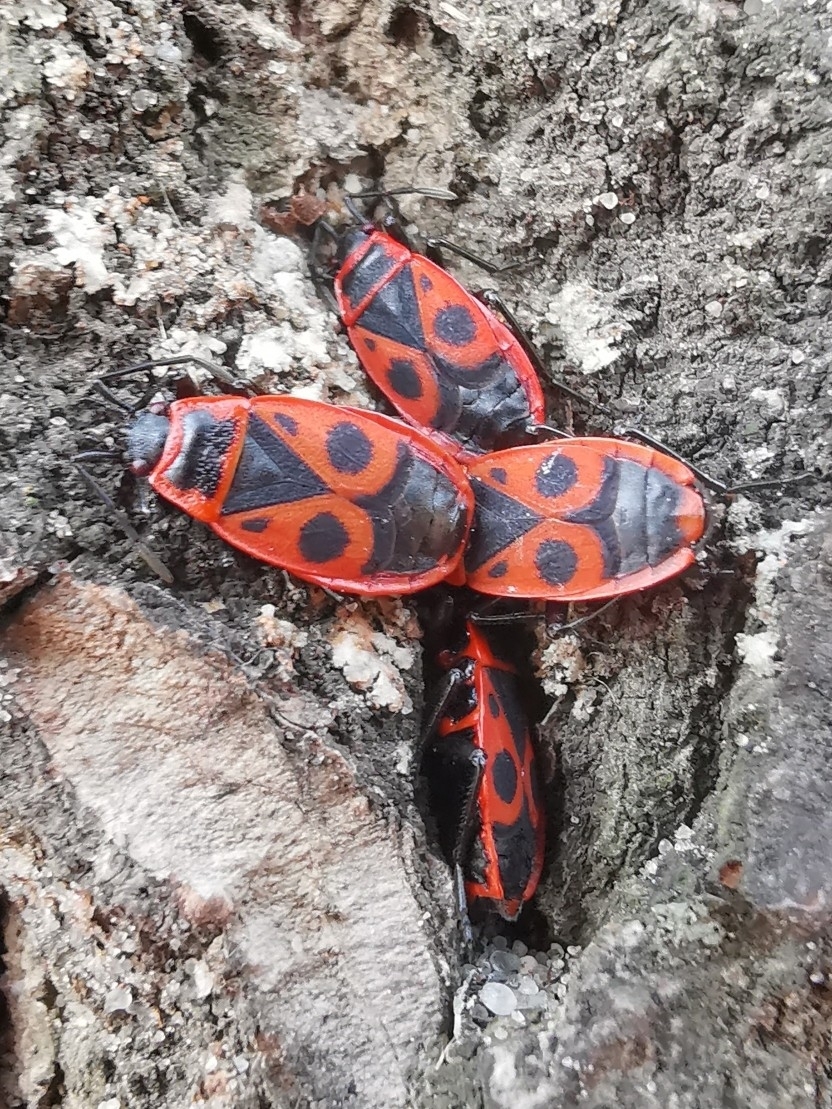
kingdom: Animalia
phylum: Arthropoda
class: Insecta
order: Hemiptera
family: Pyrrhocoridae
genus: Pyrrhocoris
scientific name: Pyrrhocoris apterus
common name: Firebug
